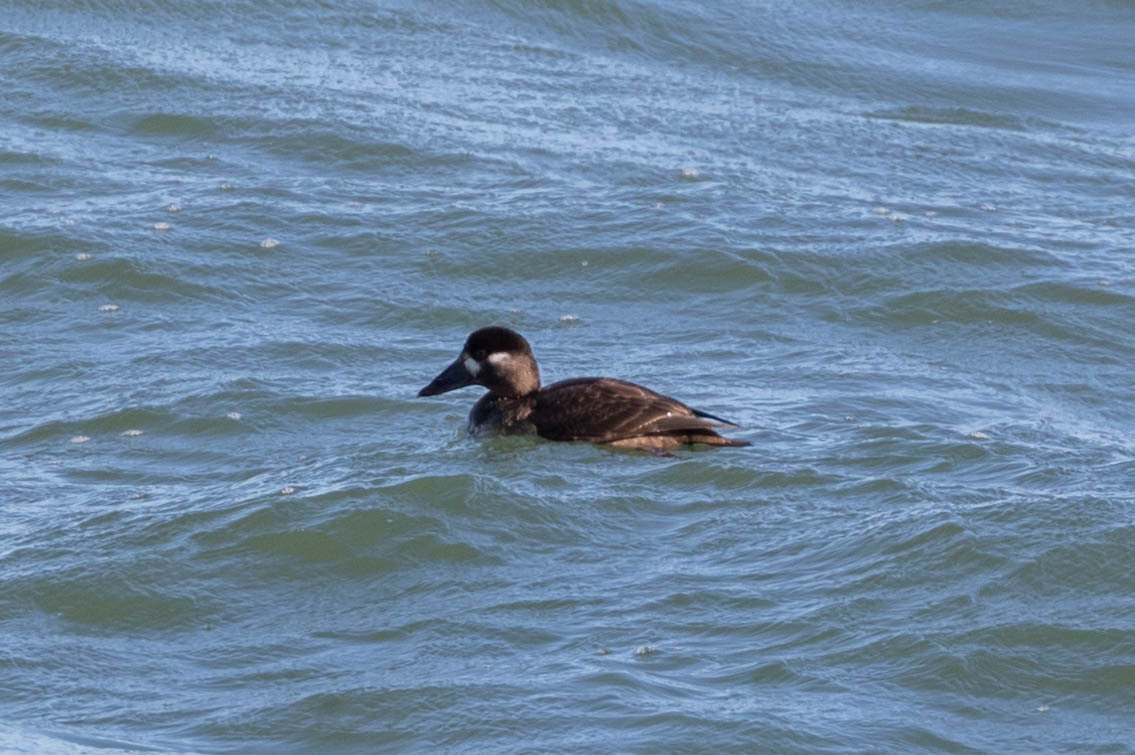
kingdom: Animalia
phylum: Chordata
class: Aves
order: Anseriformes
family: Anatidae
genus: Melanitta
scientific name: Melanitta perspicillata
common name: Surf scoter
